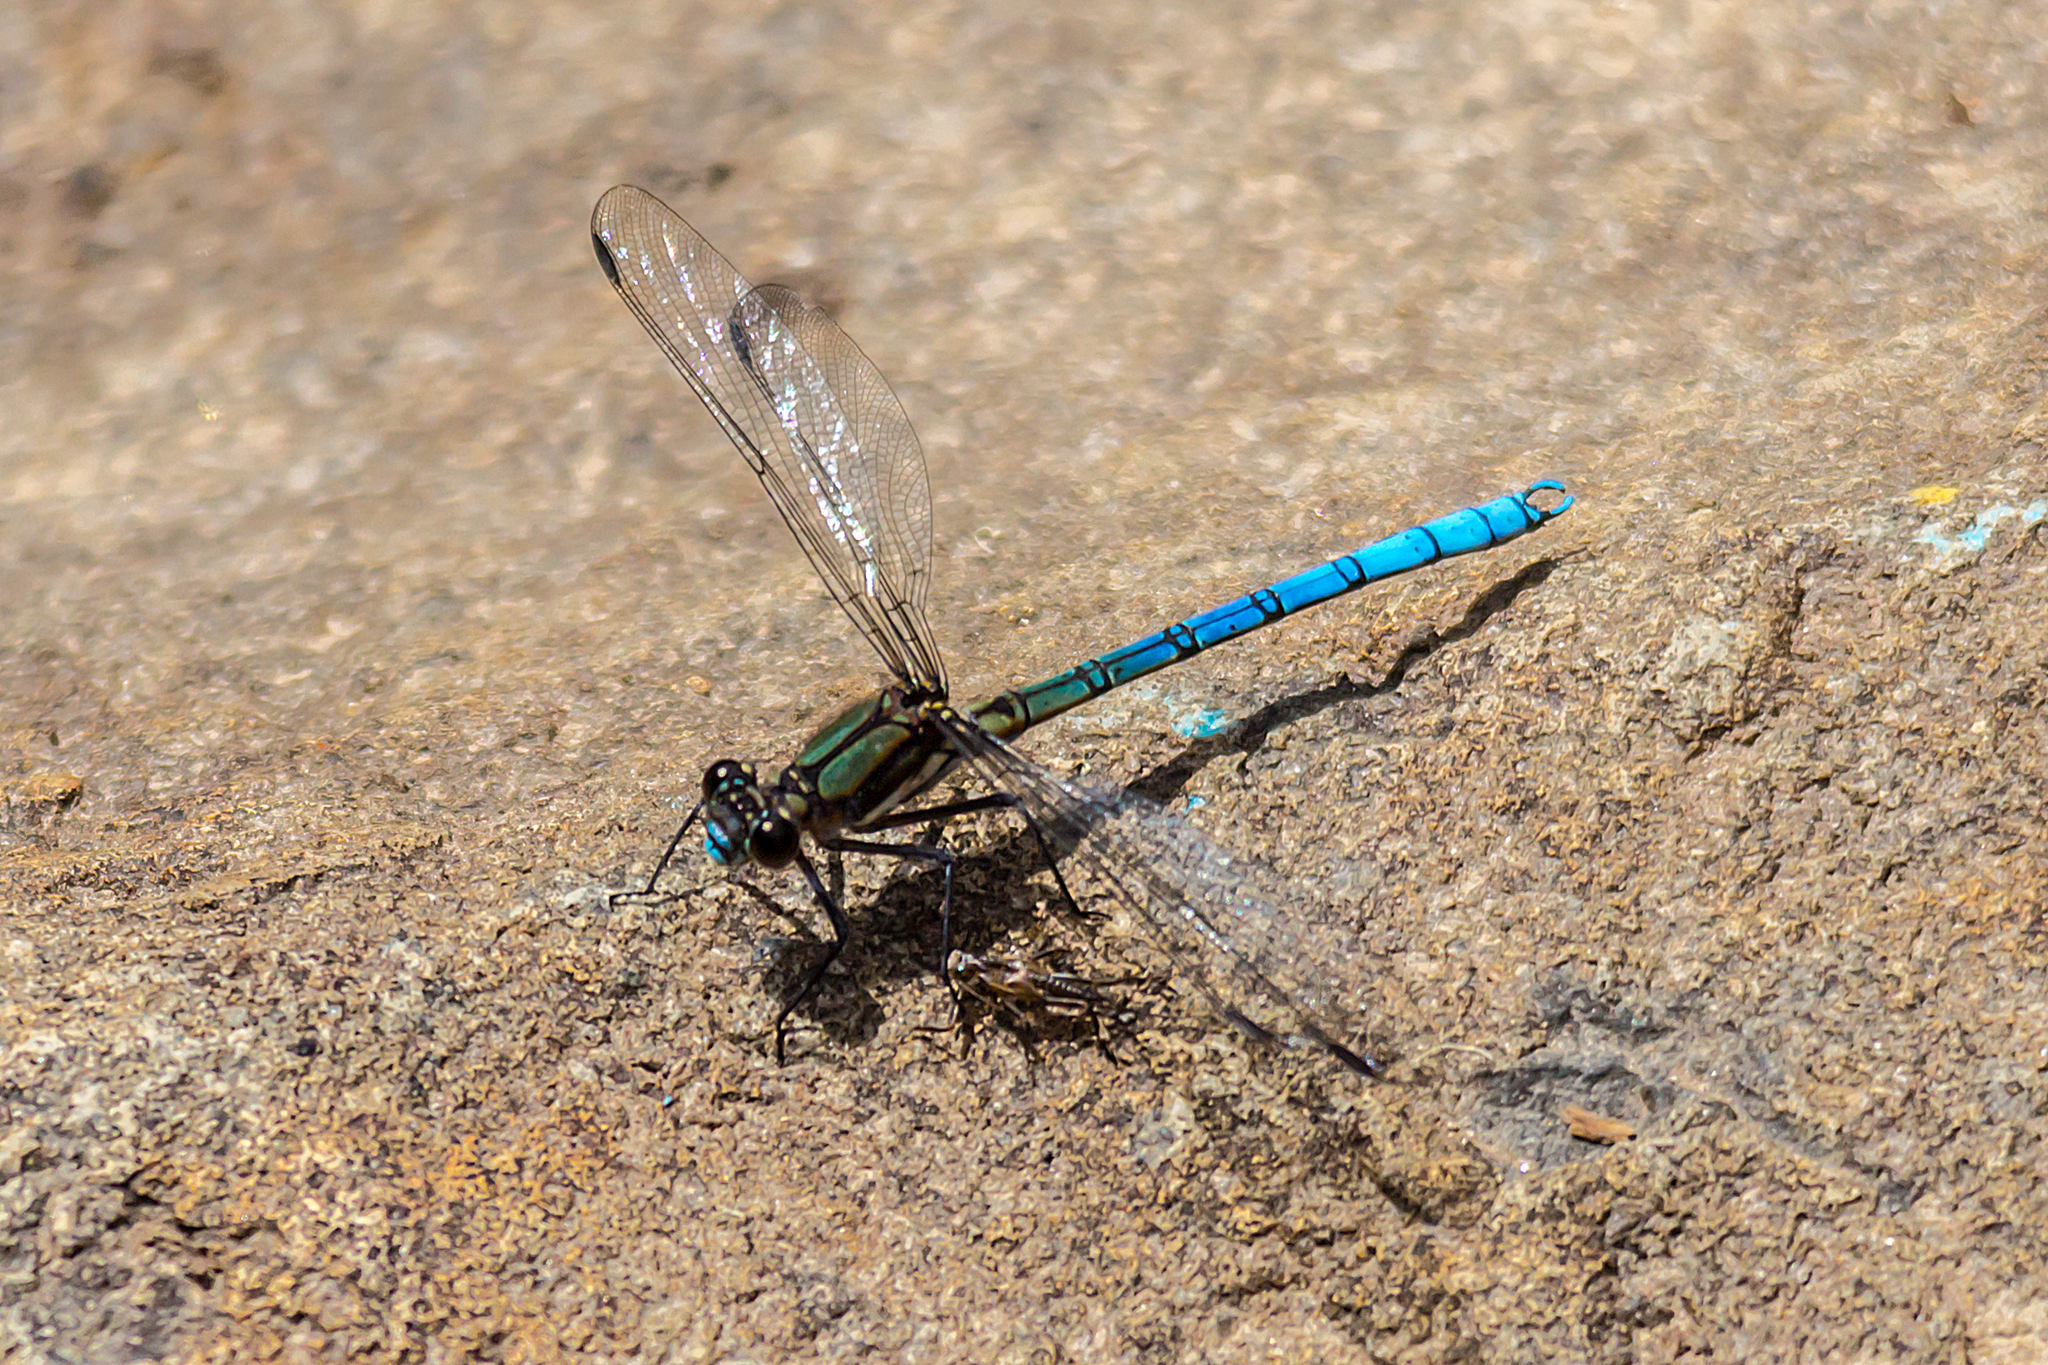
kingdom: Animalia
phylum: Arthropoda
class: Insecta
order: Odonata
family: Lestoideidae
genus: Diphlebia
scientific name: Diphlebia lestoides
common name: Whitewater rockmaster
